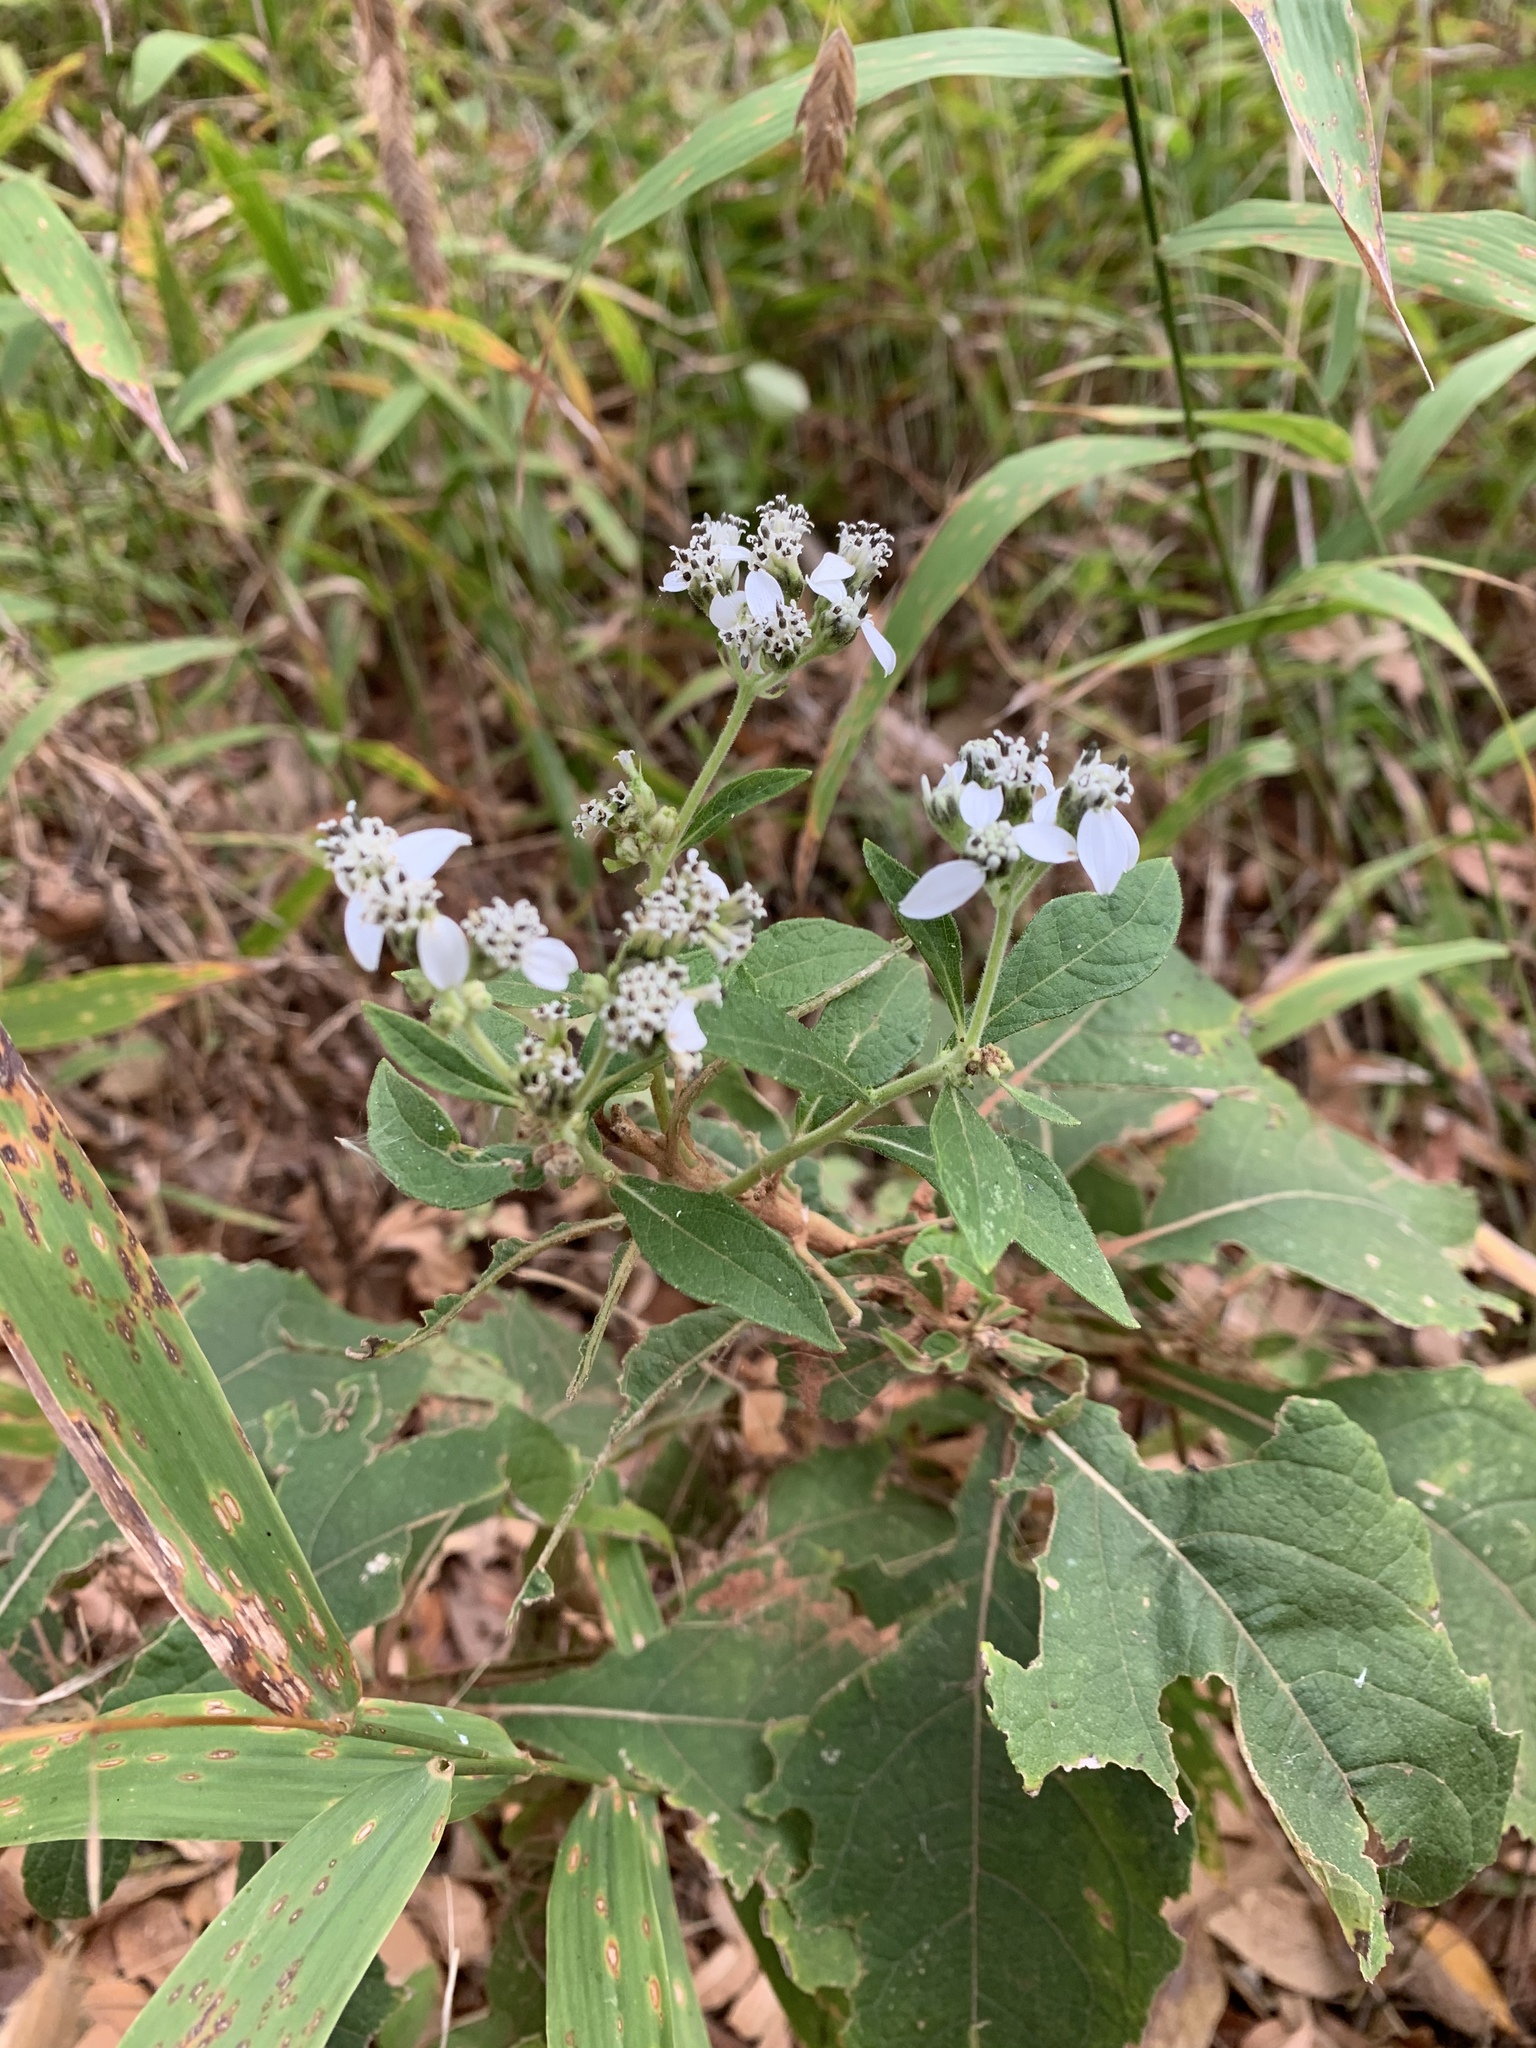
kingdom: Plantae
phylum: Tracheophyta
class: Magnoliopsida
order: Asterales
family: Asteraceae
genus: Verbesina
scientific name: Verbesina virginica
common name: Frostweed
